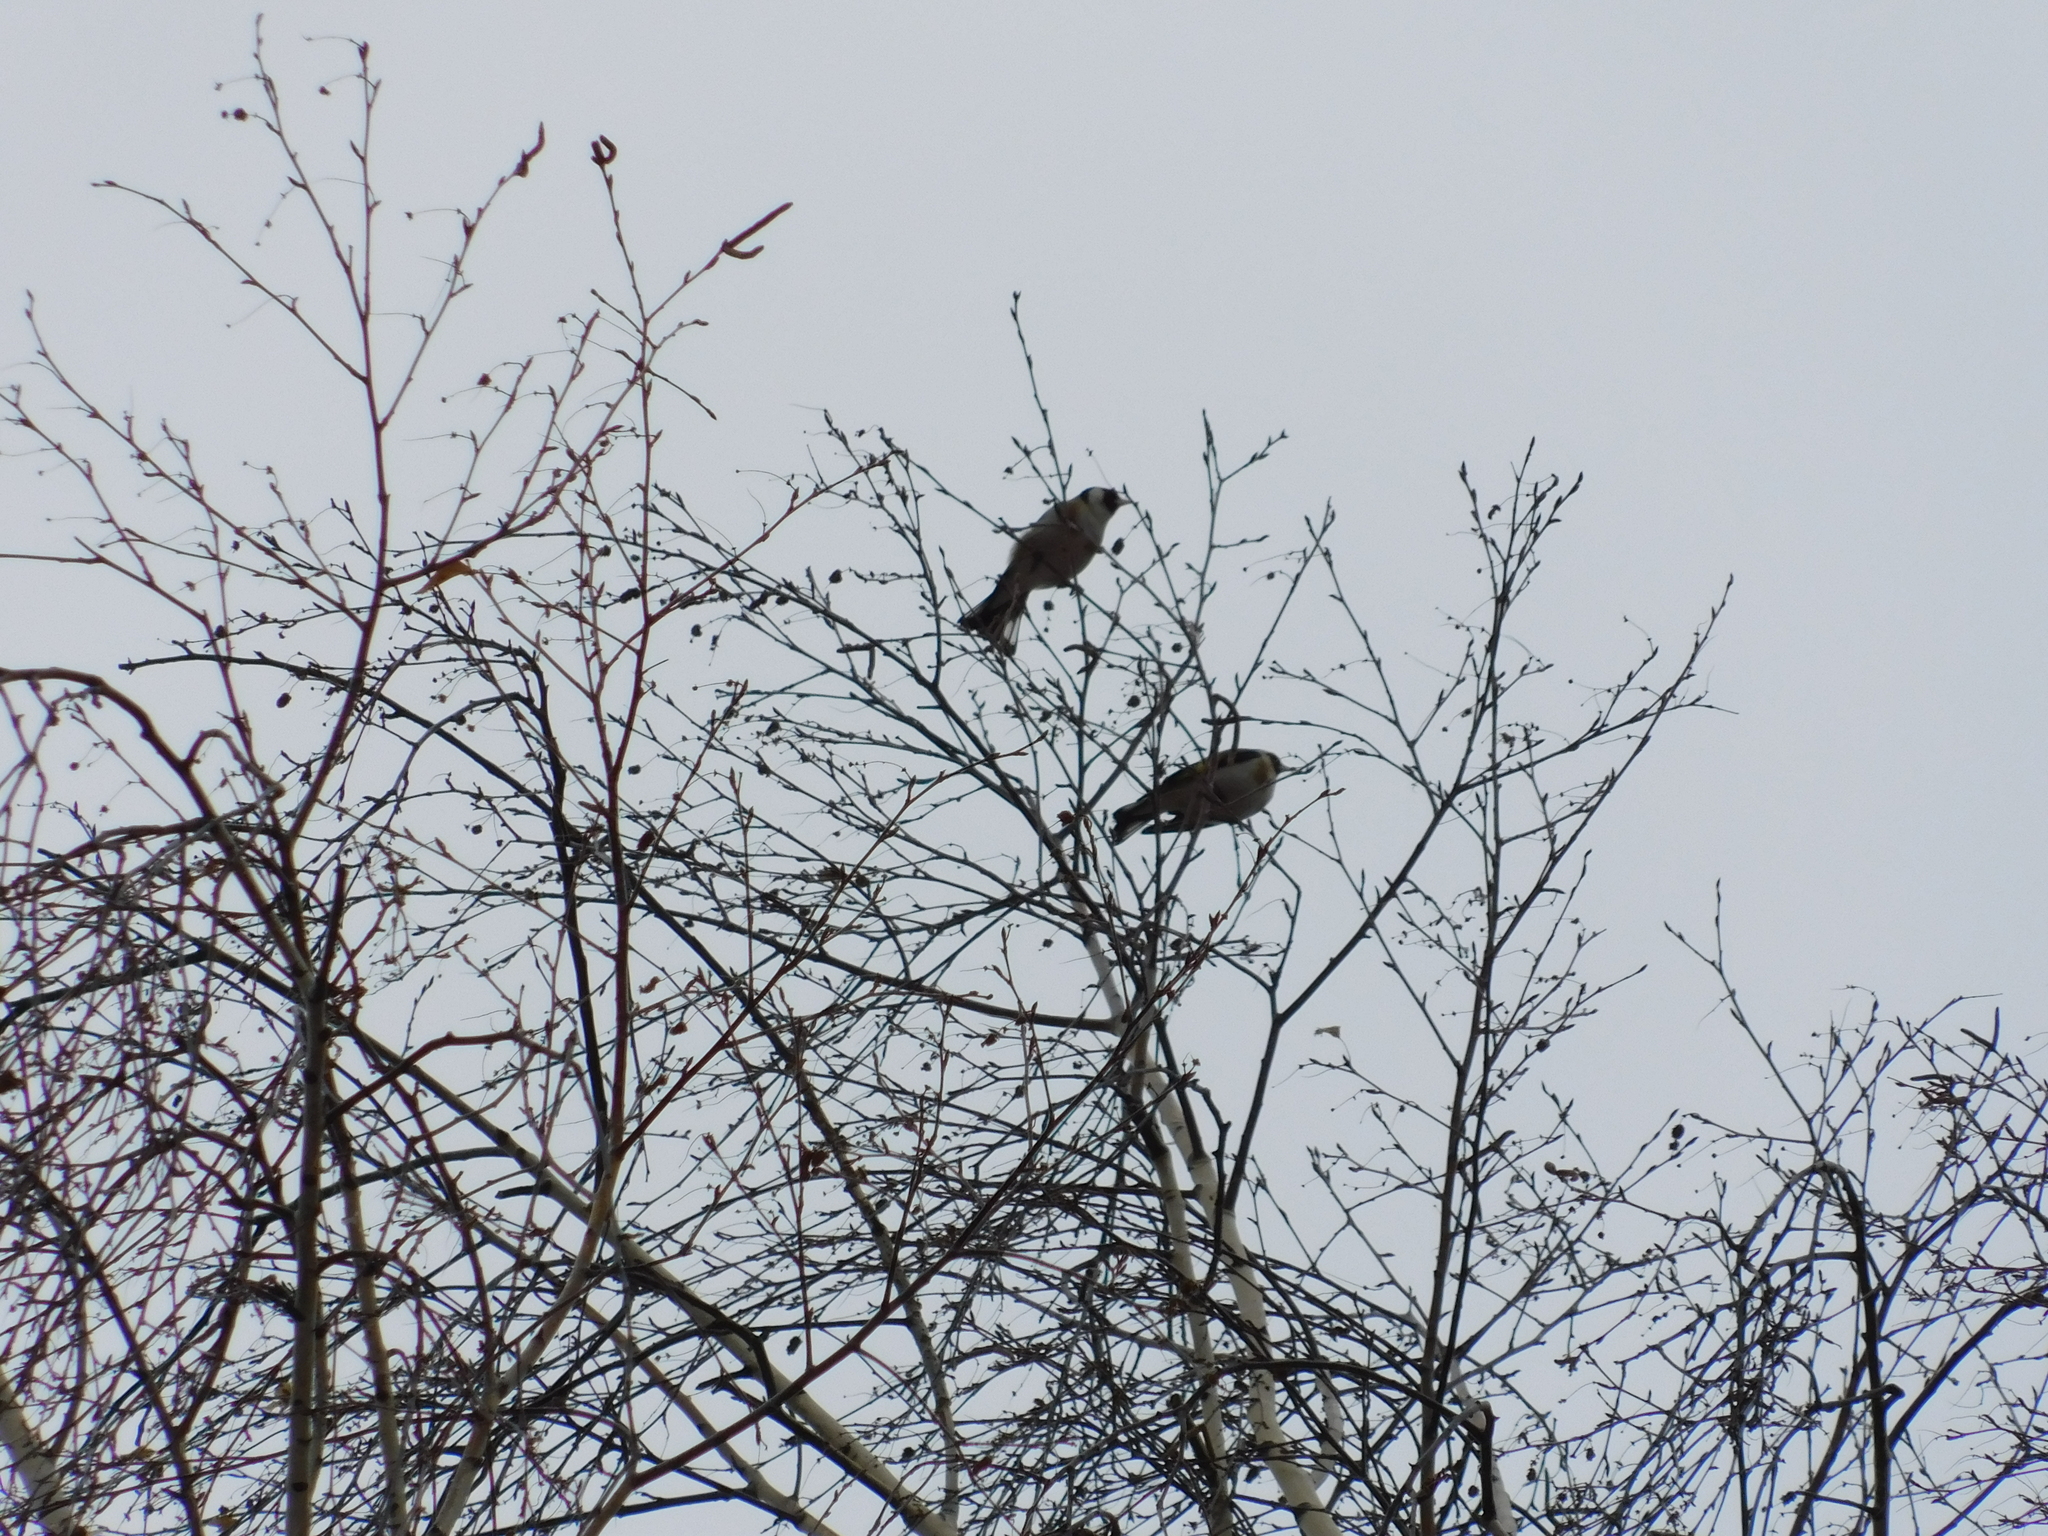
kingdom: Animalia
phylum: Chordata
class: Aves
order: Passeriformes
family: Fringillidae
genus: Carduelis
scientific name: Carduelis carduelis
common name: European goldfinch
